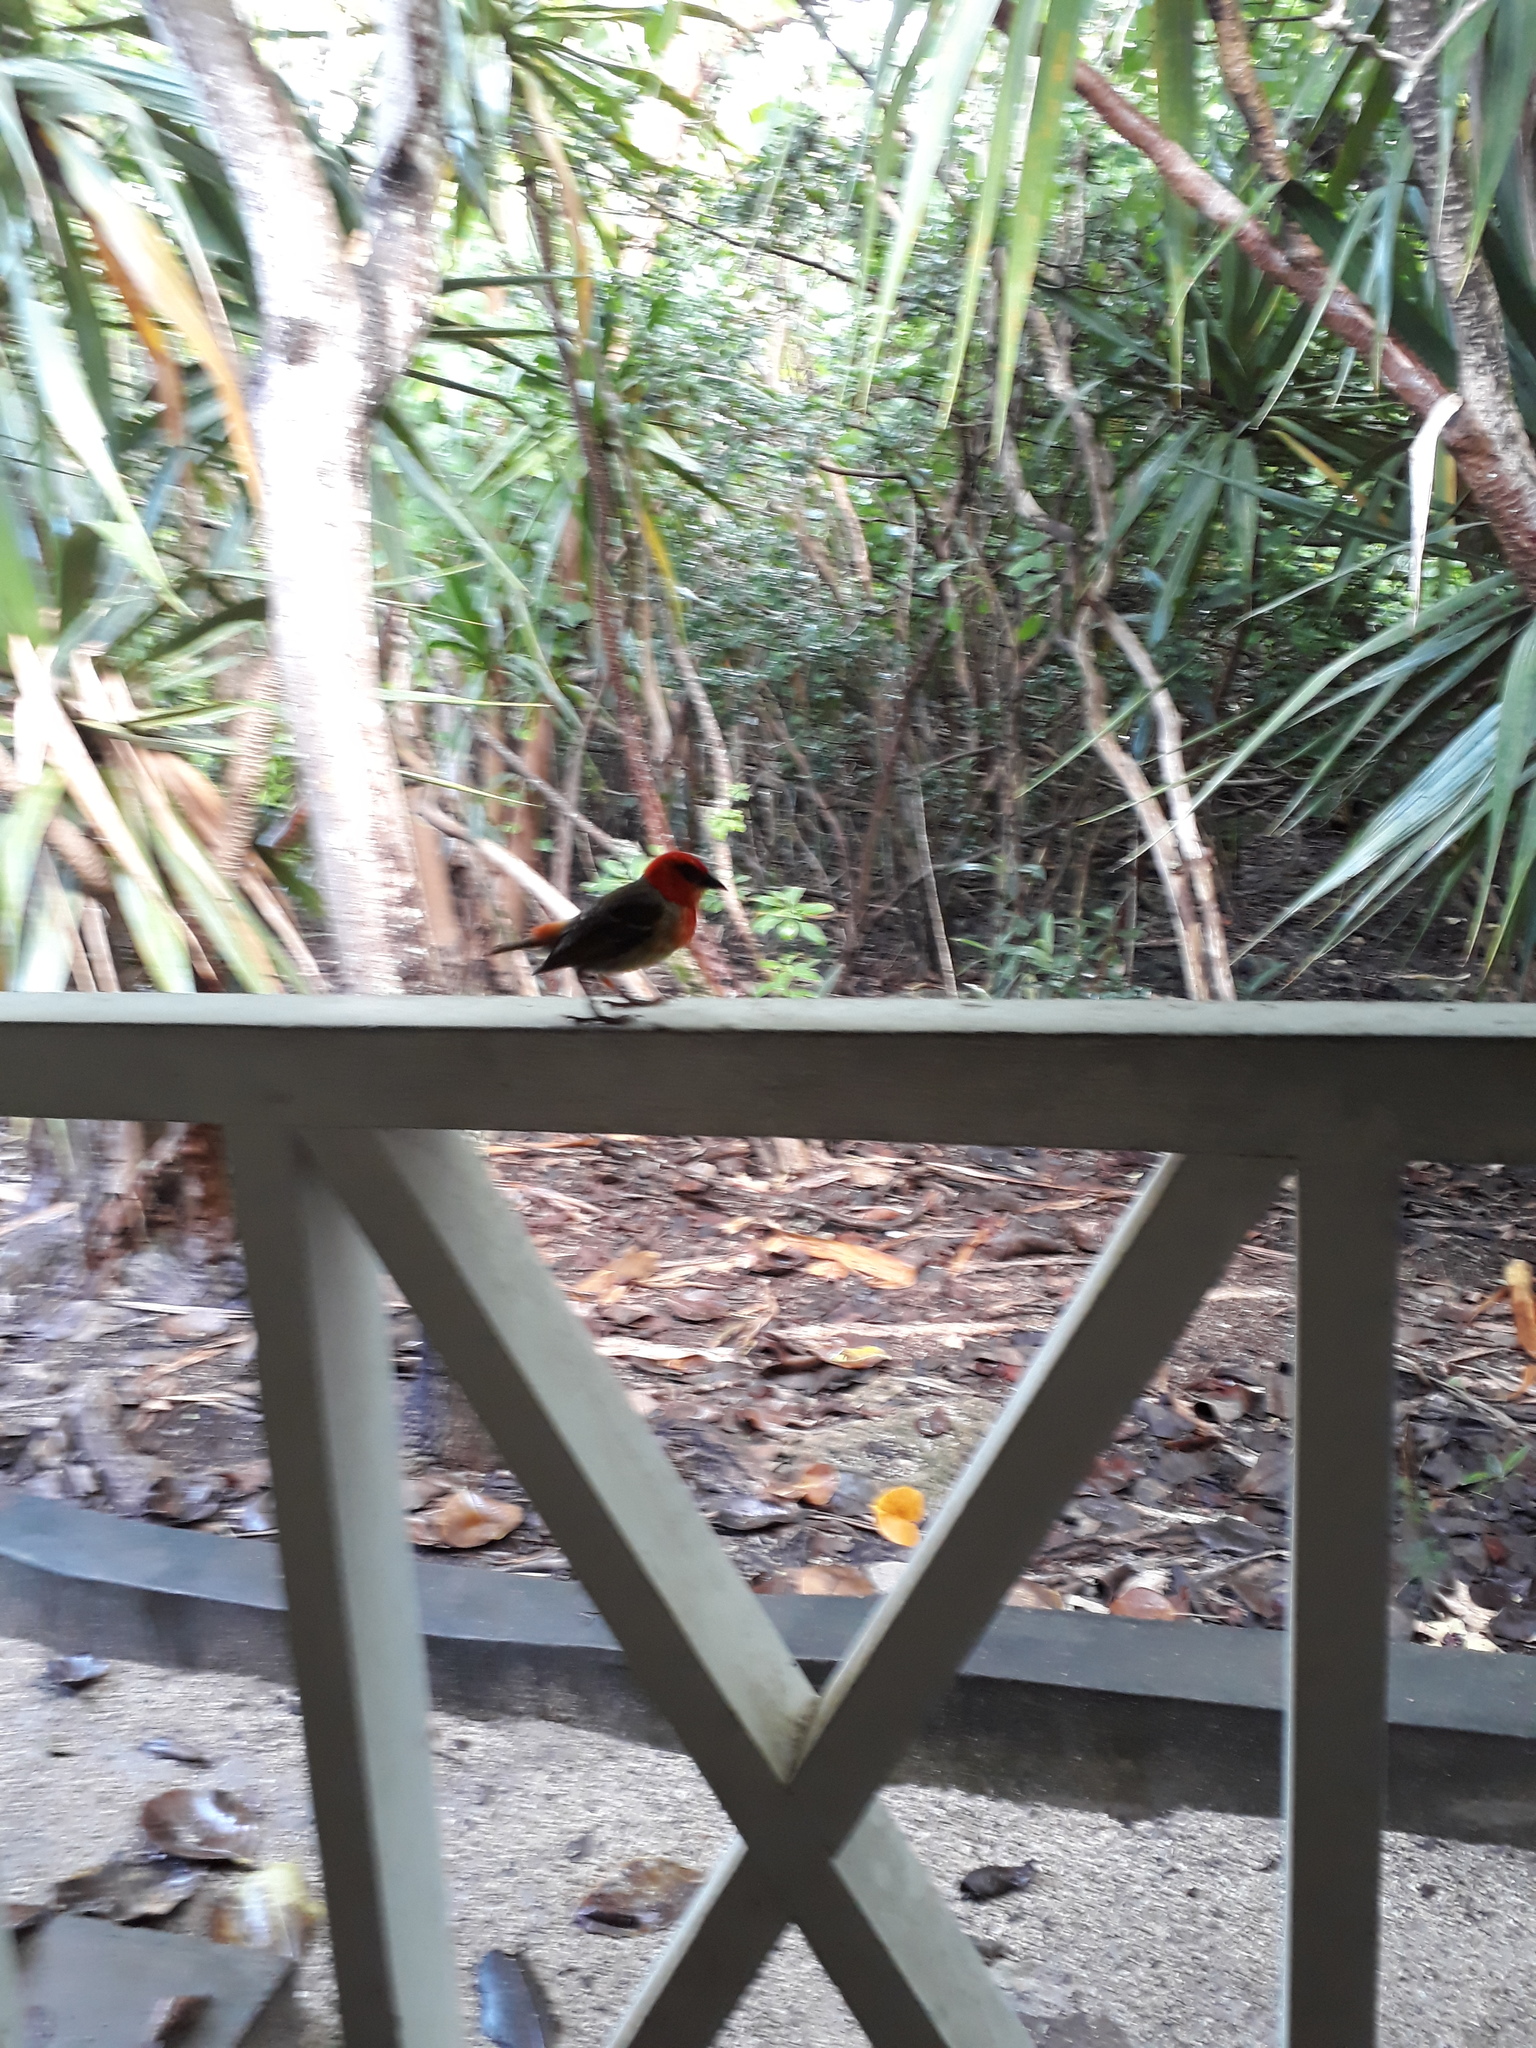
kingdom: Animalia
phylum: Chordata
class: Aves
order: Passeriformes
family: Ploceidae
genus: Foudia
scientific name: Foudia rubra
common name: Mauritius fody
